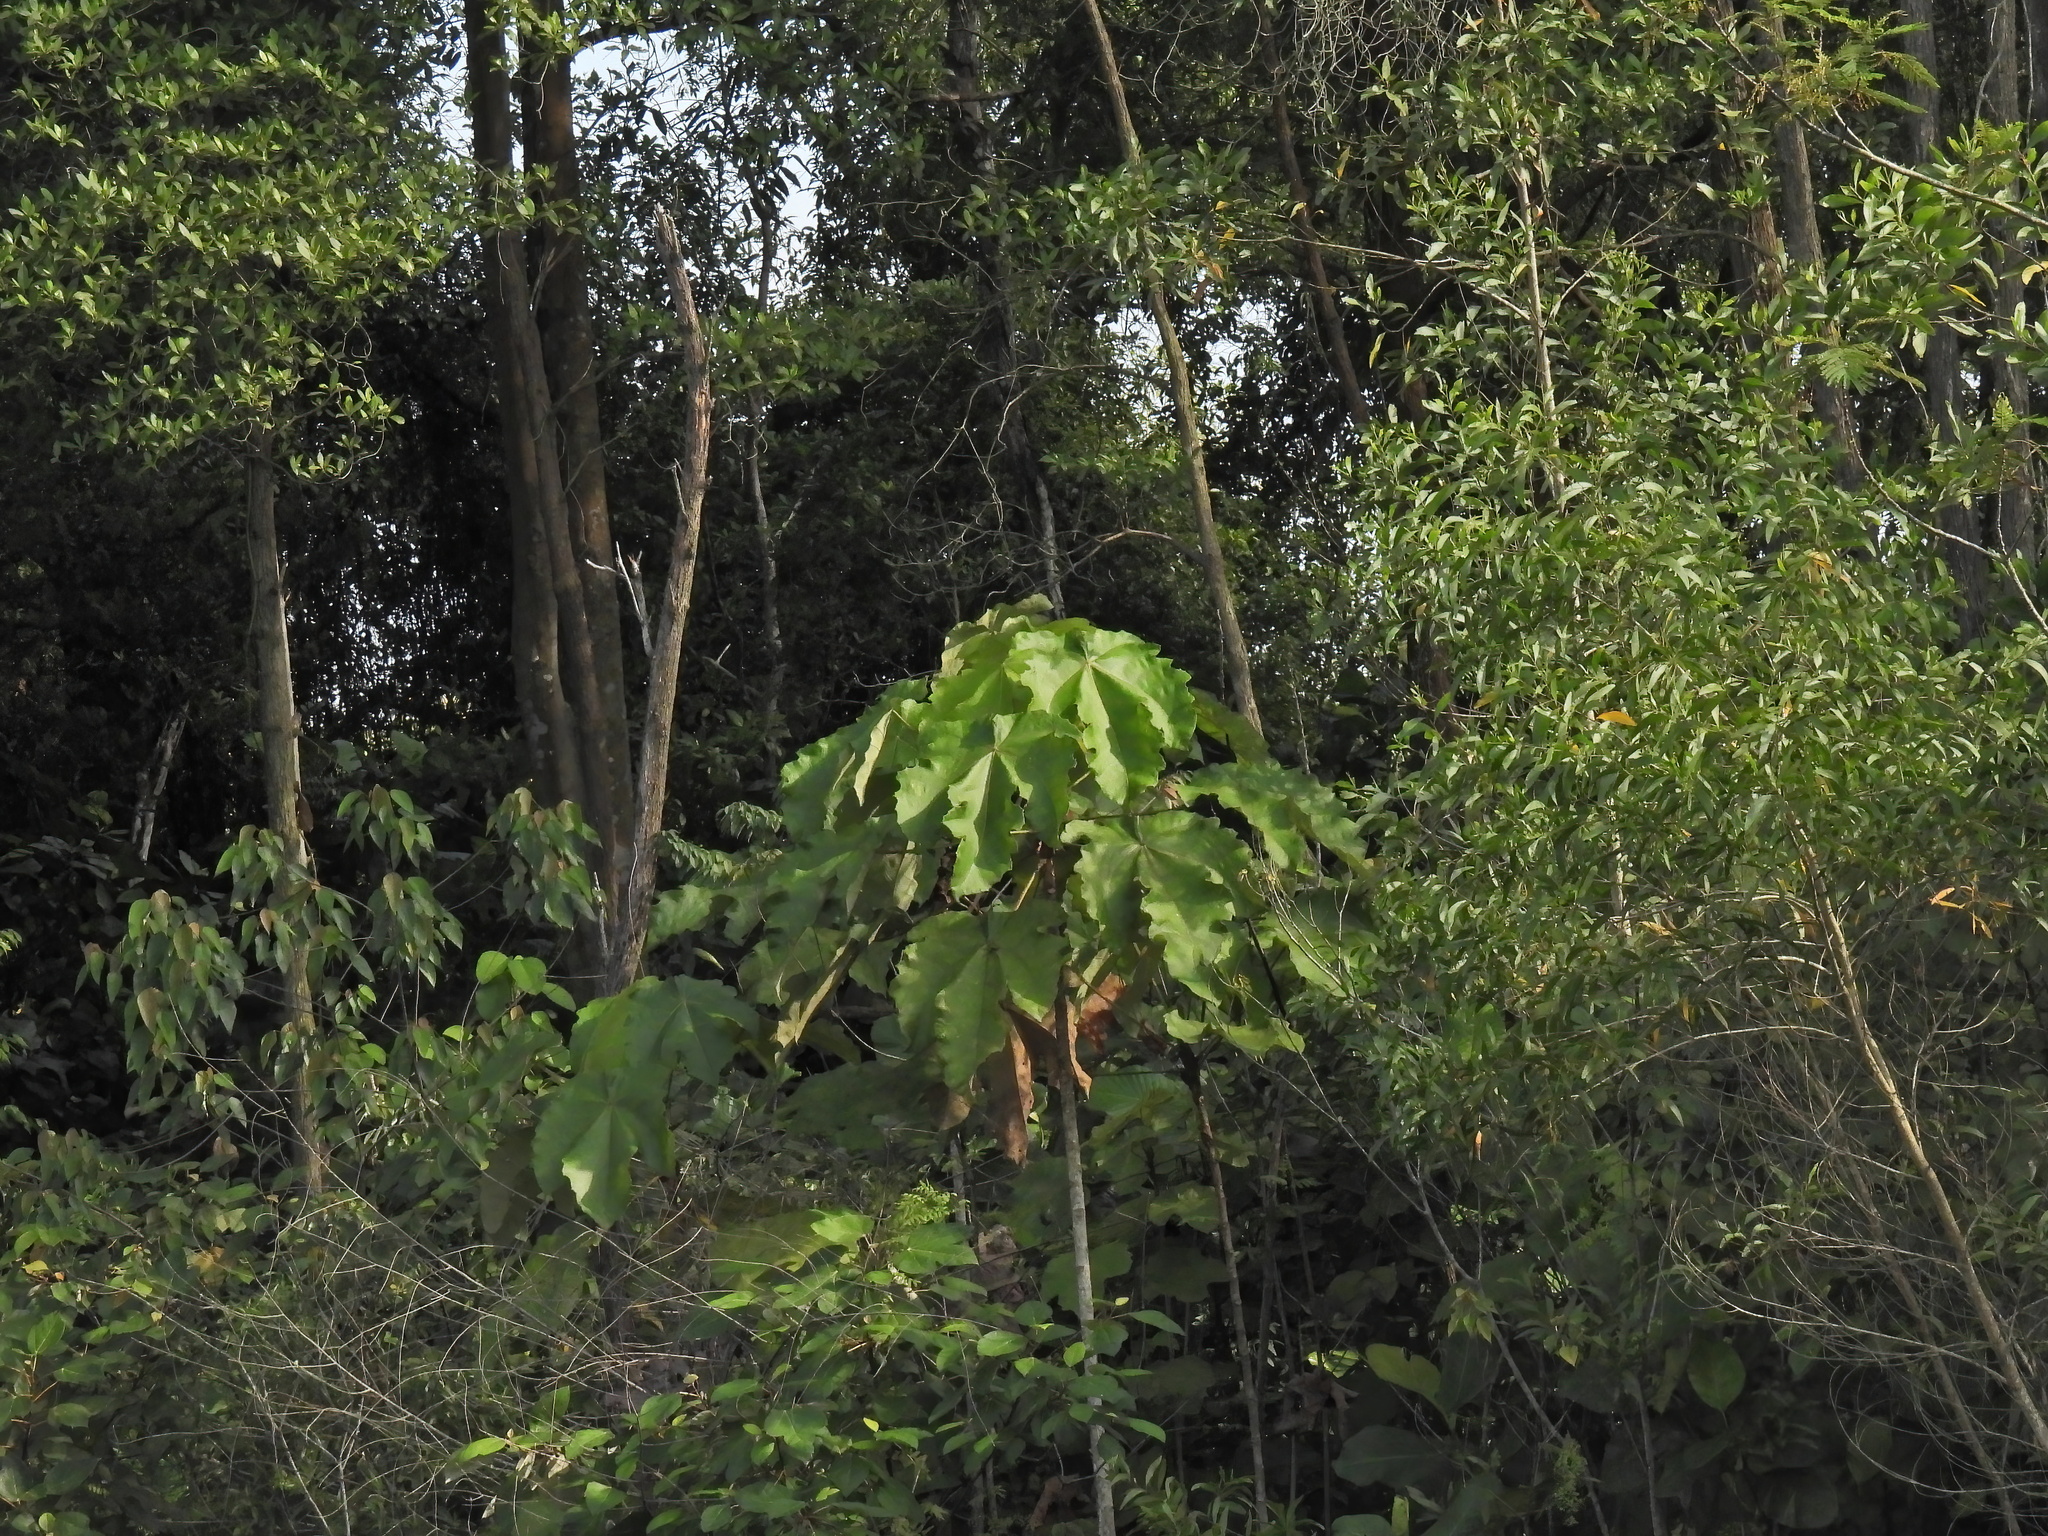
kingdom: Plantae
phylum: Tracheophyta
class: Magnoliopsida
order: Malpighiales
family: Euphorbiaceae
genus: Macaranga
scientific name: Macaranga gigantea
